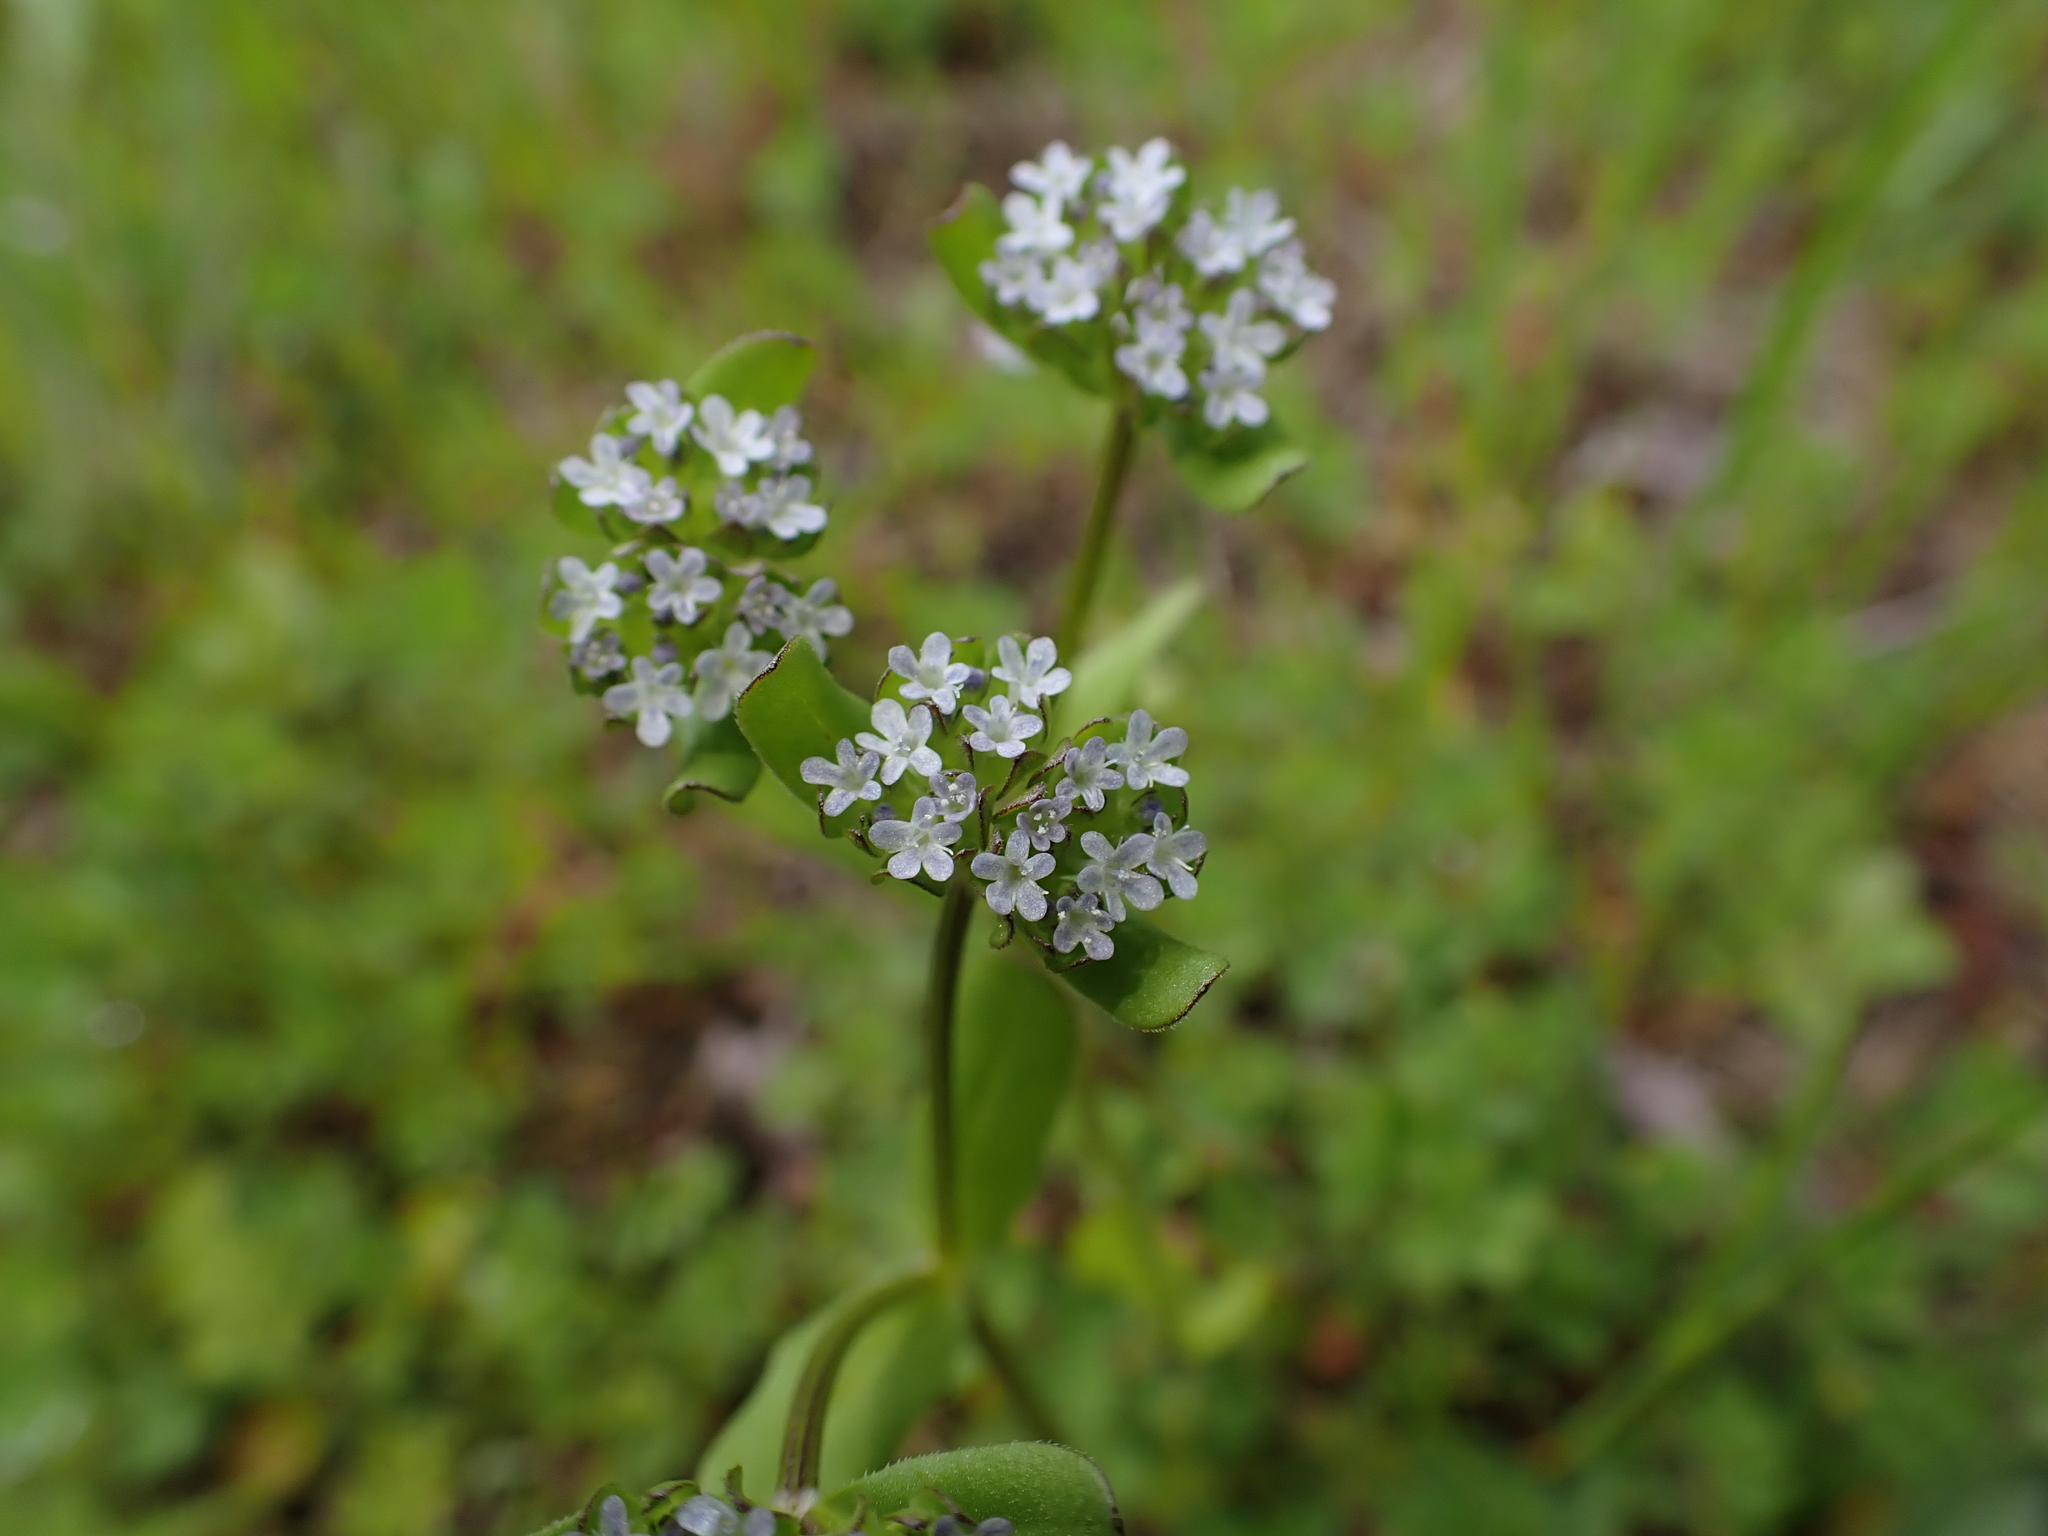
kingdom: Plantae
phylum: Tracheophyta
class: Magnoliopsida
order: Dipsacales
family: Caprifoliaceae
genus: Valerianella
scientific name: Valerianella locusta
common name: Common cornsalad
